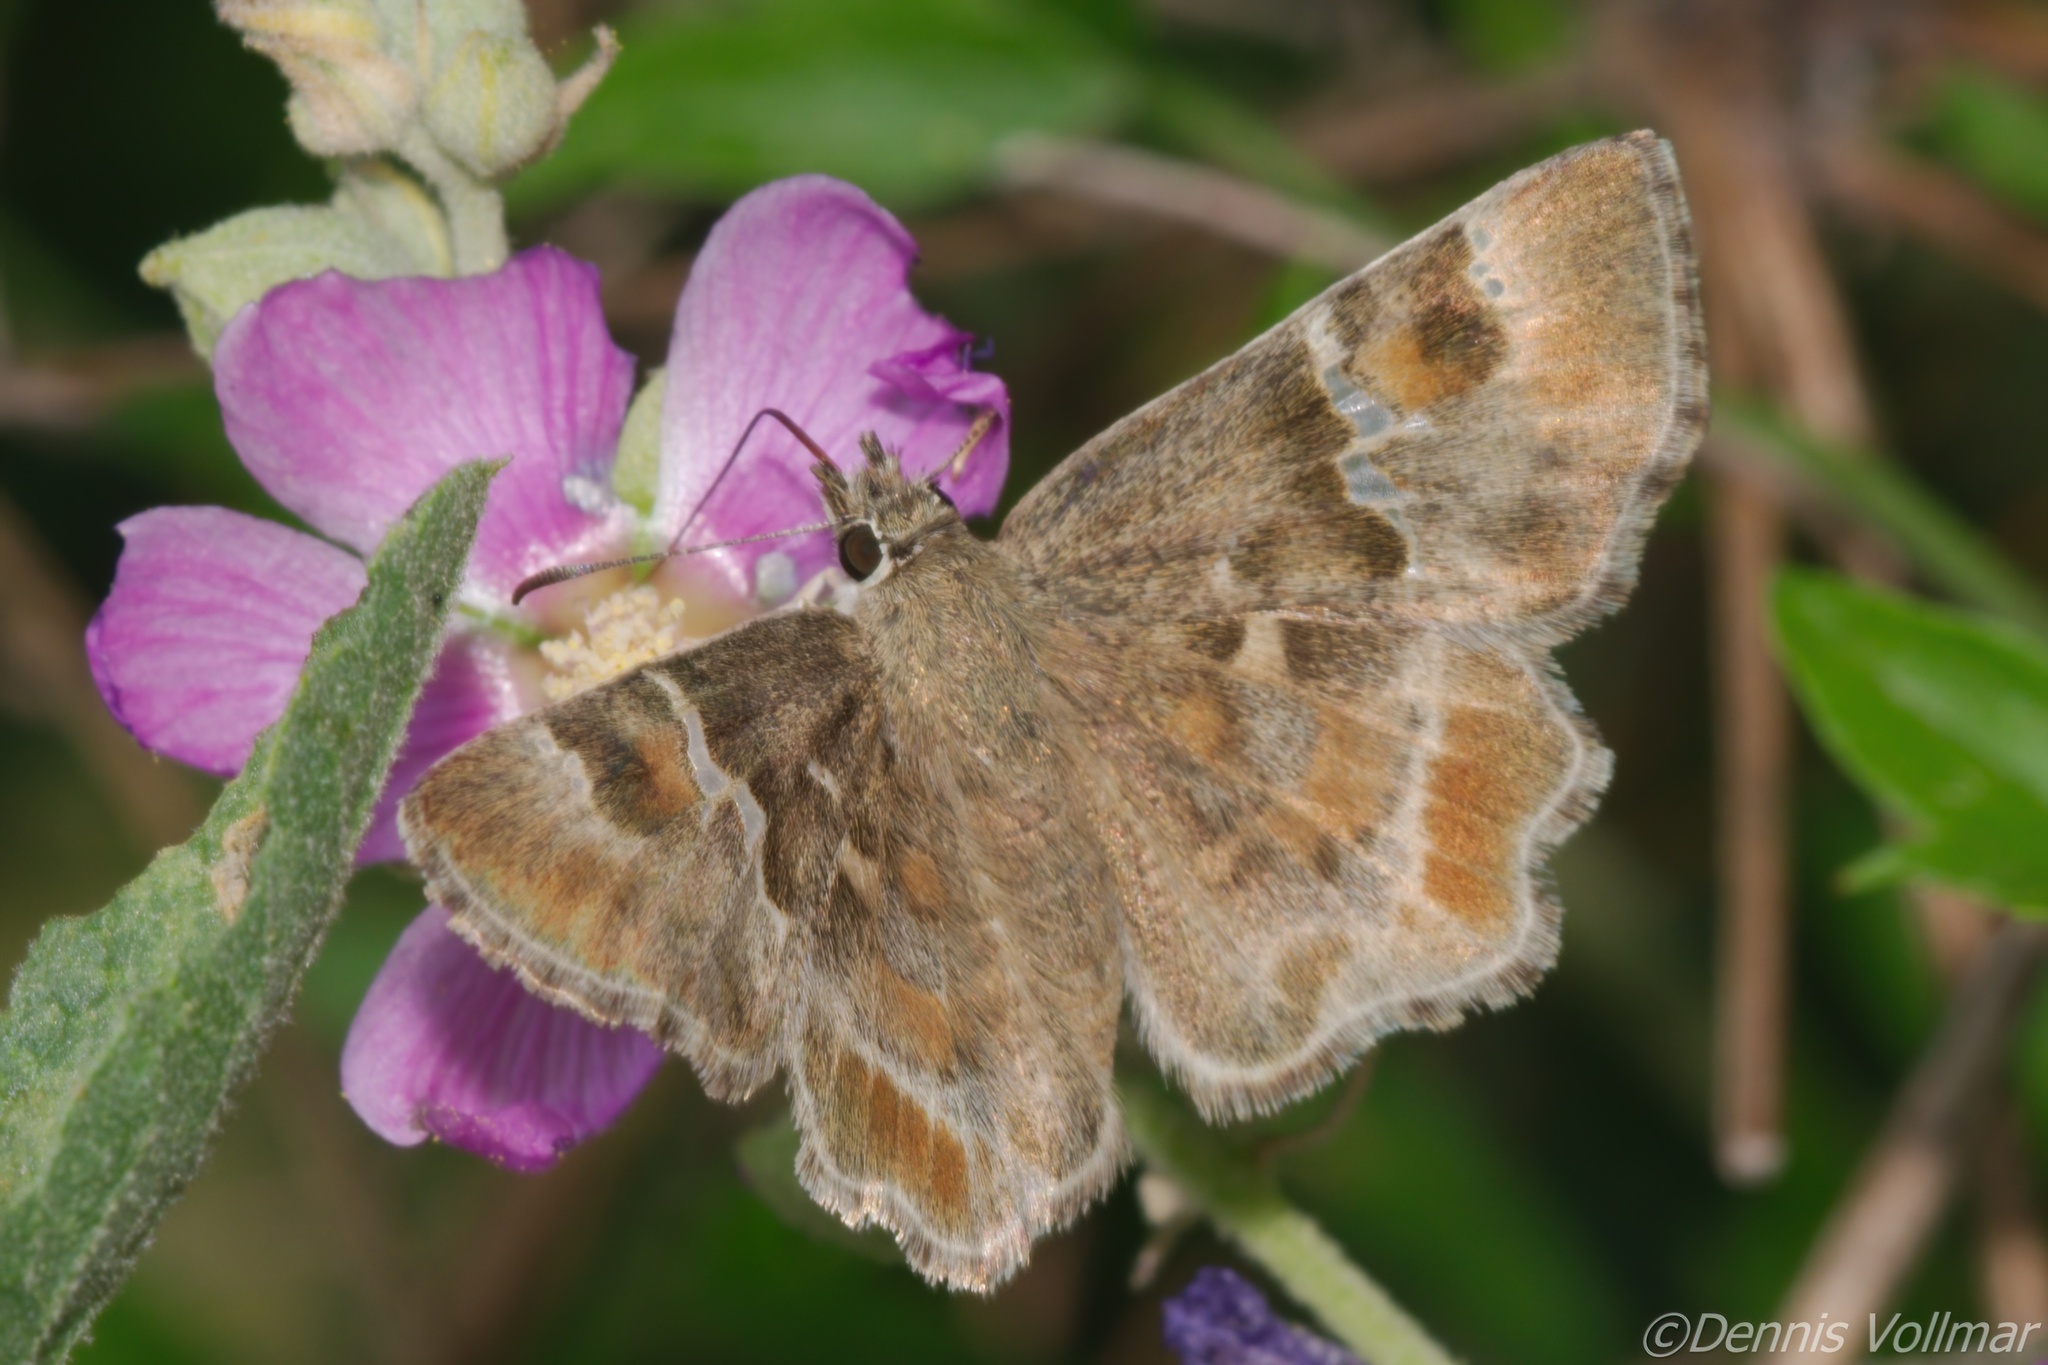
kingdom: Animalia
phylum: Arthropoda
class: Insecta
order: Lepidoptera
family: Hesperiidae
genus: Systasea
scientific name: Systasea zampa
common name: Arizona powdered-skipper
